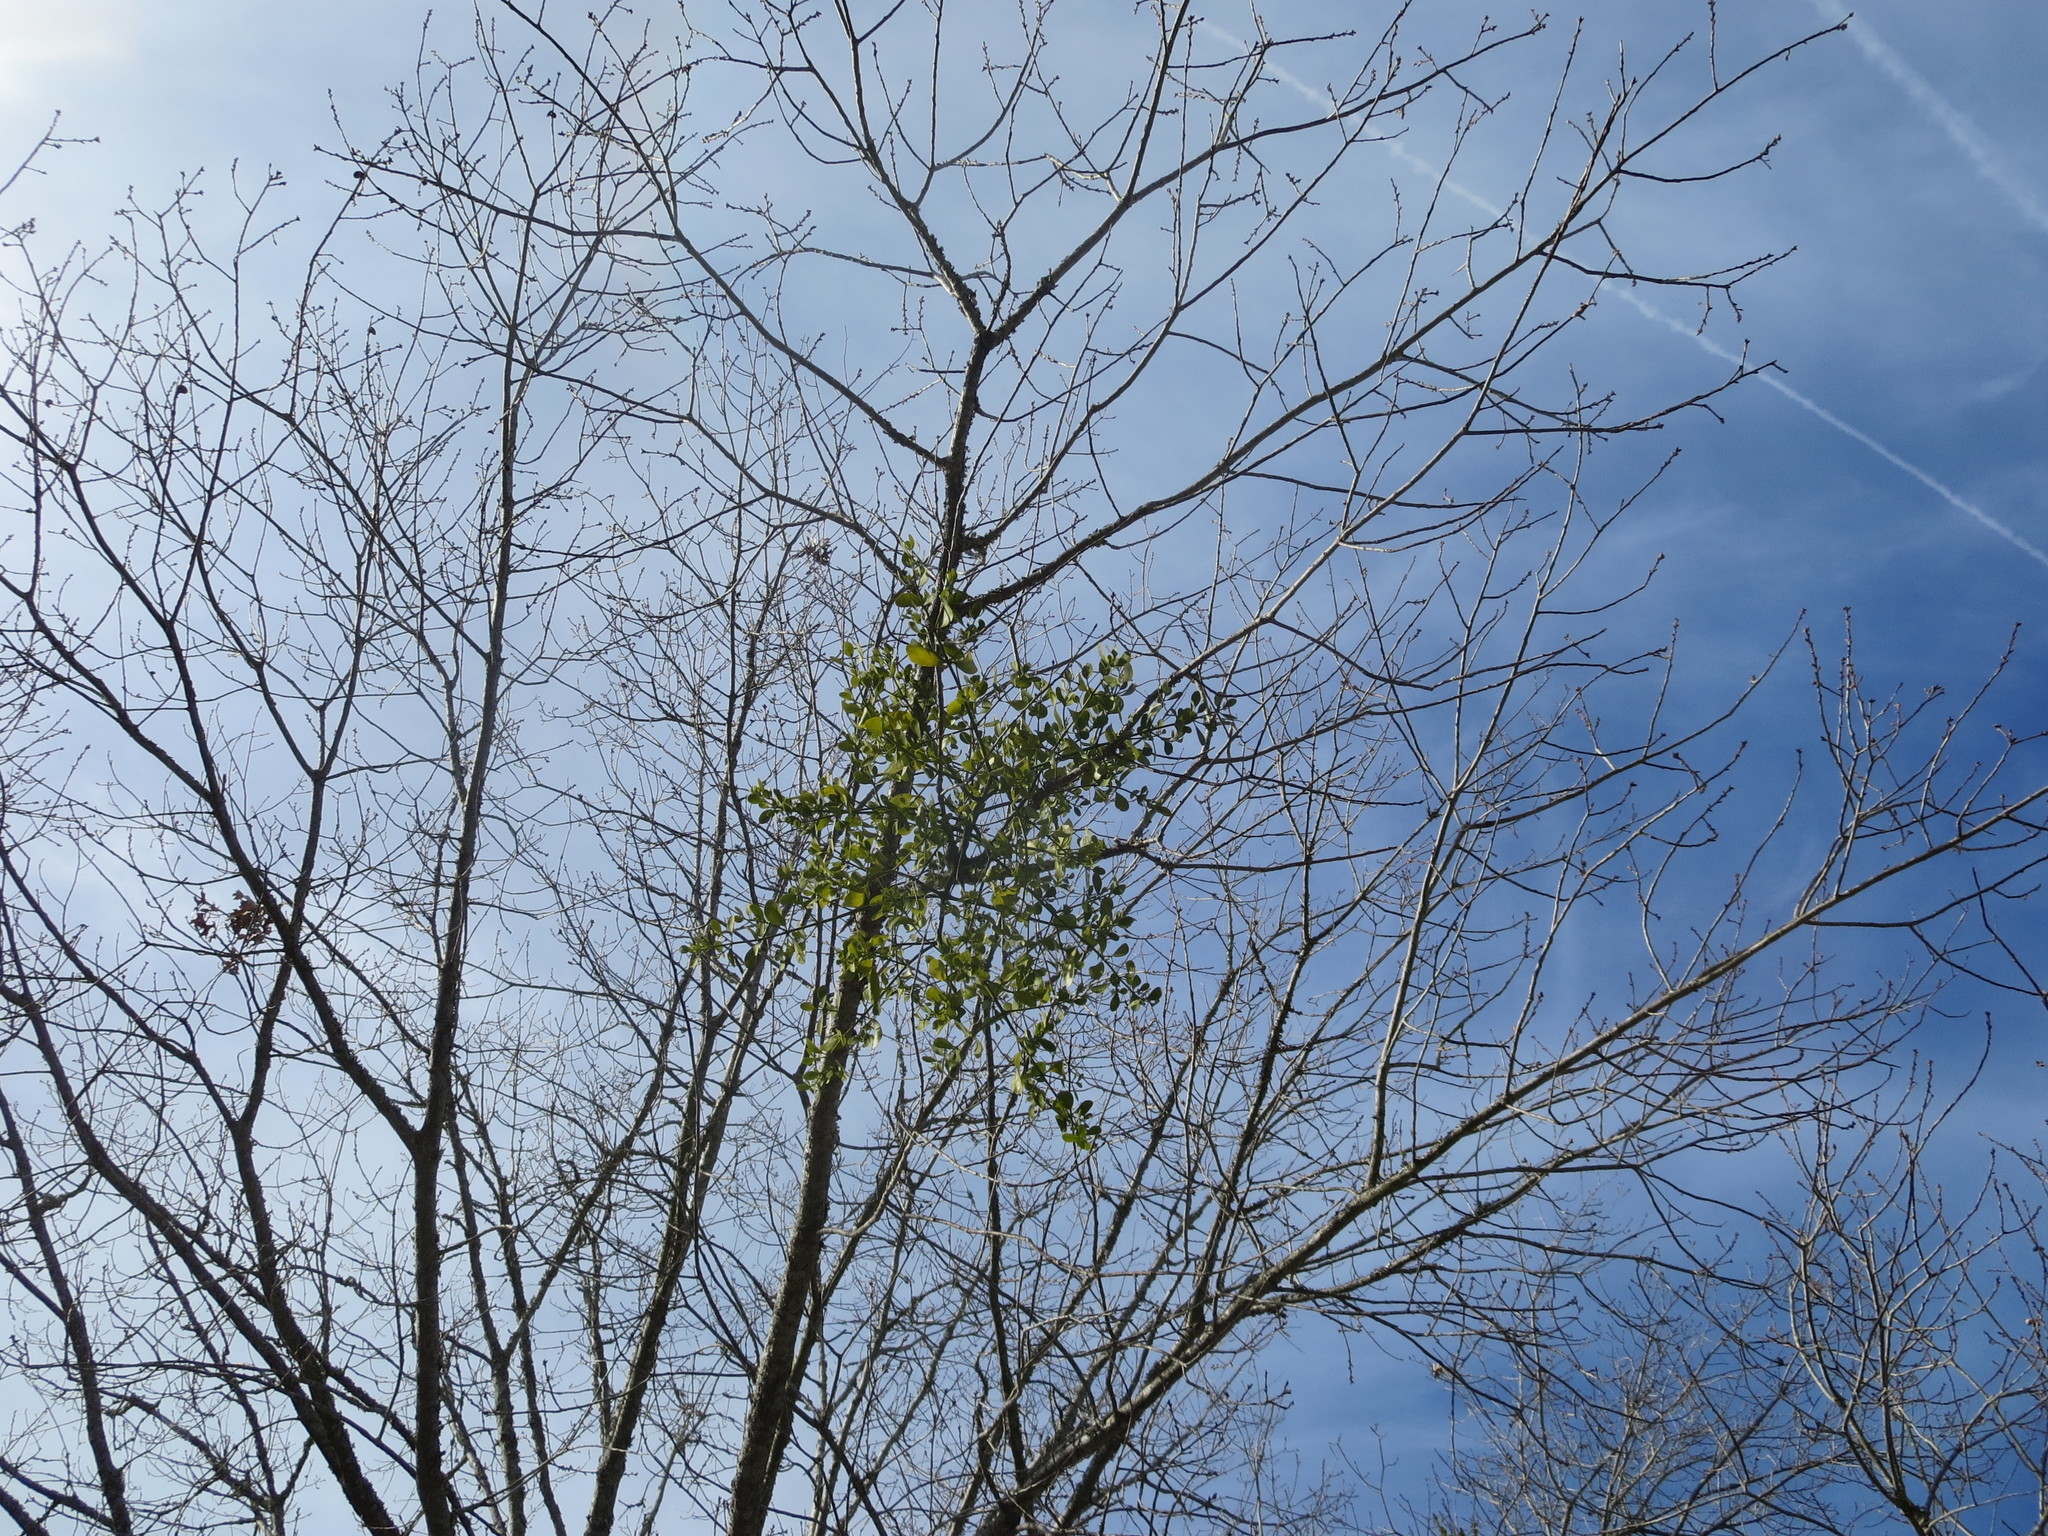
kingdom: Plantae
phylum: Tracheophyta
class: Magnoliopsida
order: Santalales
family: Viscaceae
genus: Phoradendron
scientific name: Phoradendron leucarpum
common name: Pacific mistletoe
